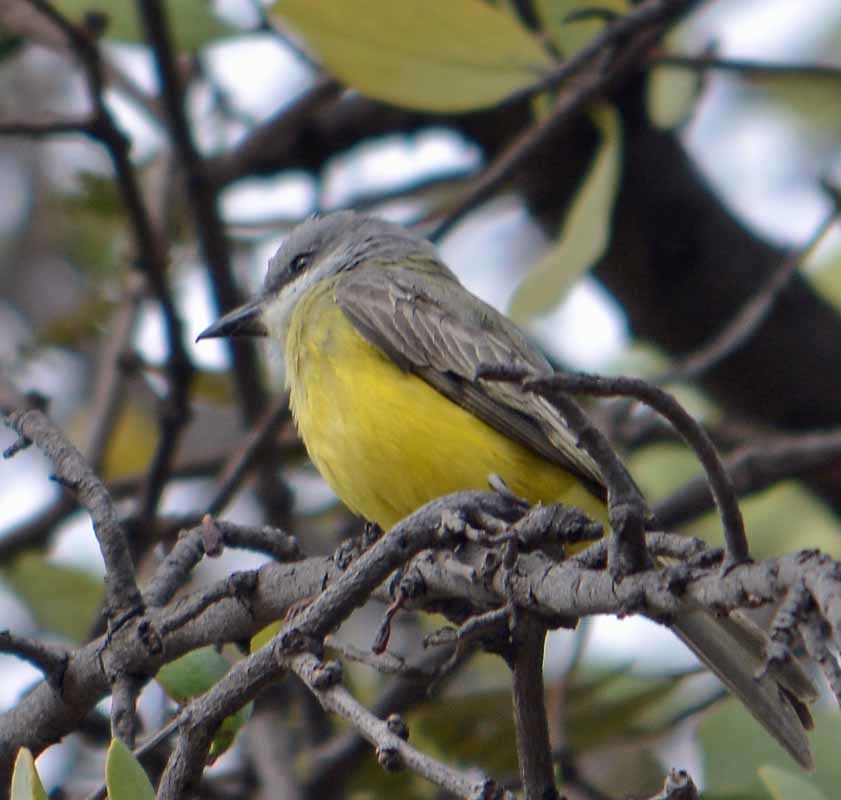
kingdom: Animalia
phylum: Chordata
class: Aves
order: Passeriformes
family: Tyrannidae
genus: Tyrannus
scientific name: Tyrannus vociferans
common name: Cassin's kingbird
